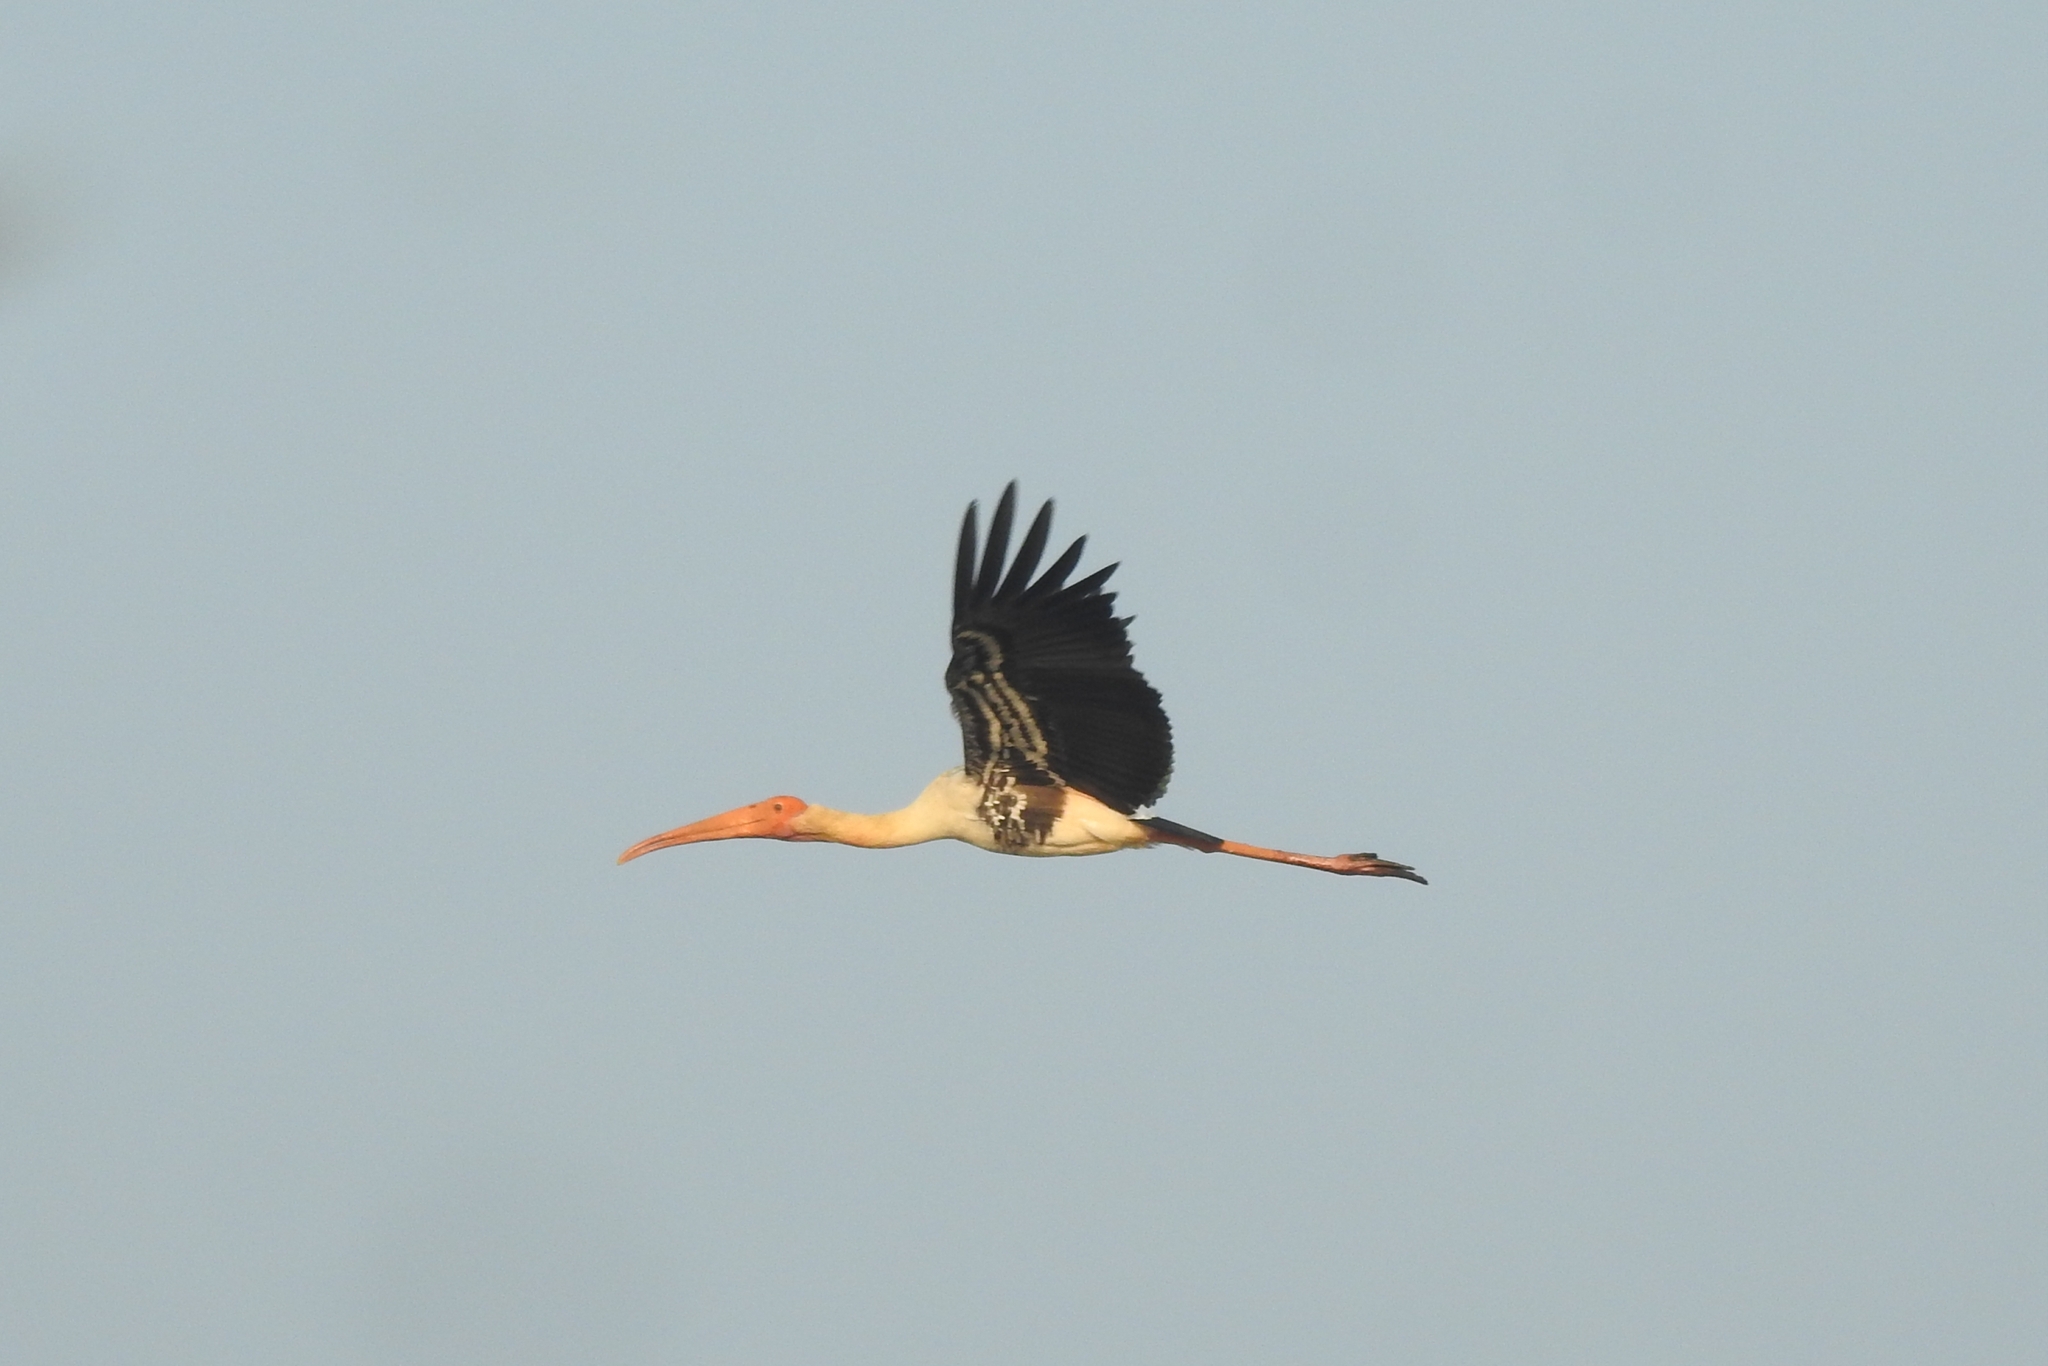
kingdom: Animalia
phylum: Chordata
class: Aves
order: Ciconiiformes
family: Ciconiidae
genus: Mycteria
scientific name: Mycteria leucocephala
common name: Painted stork
